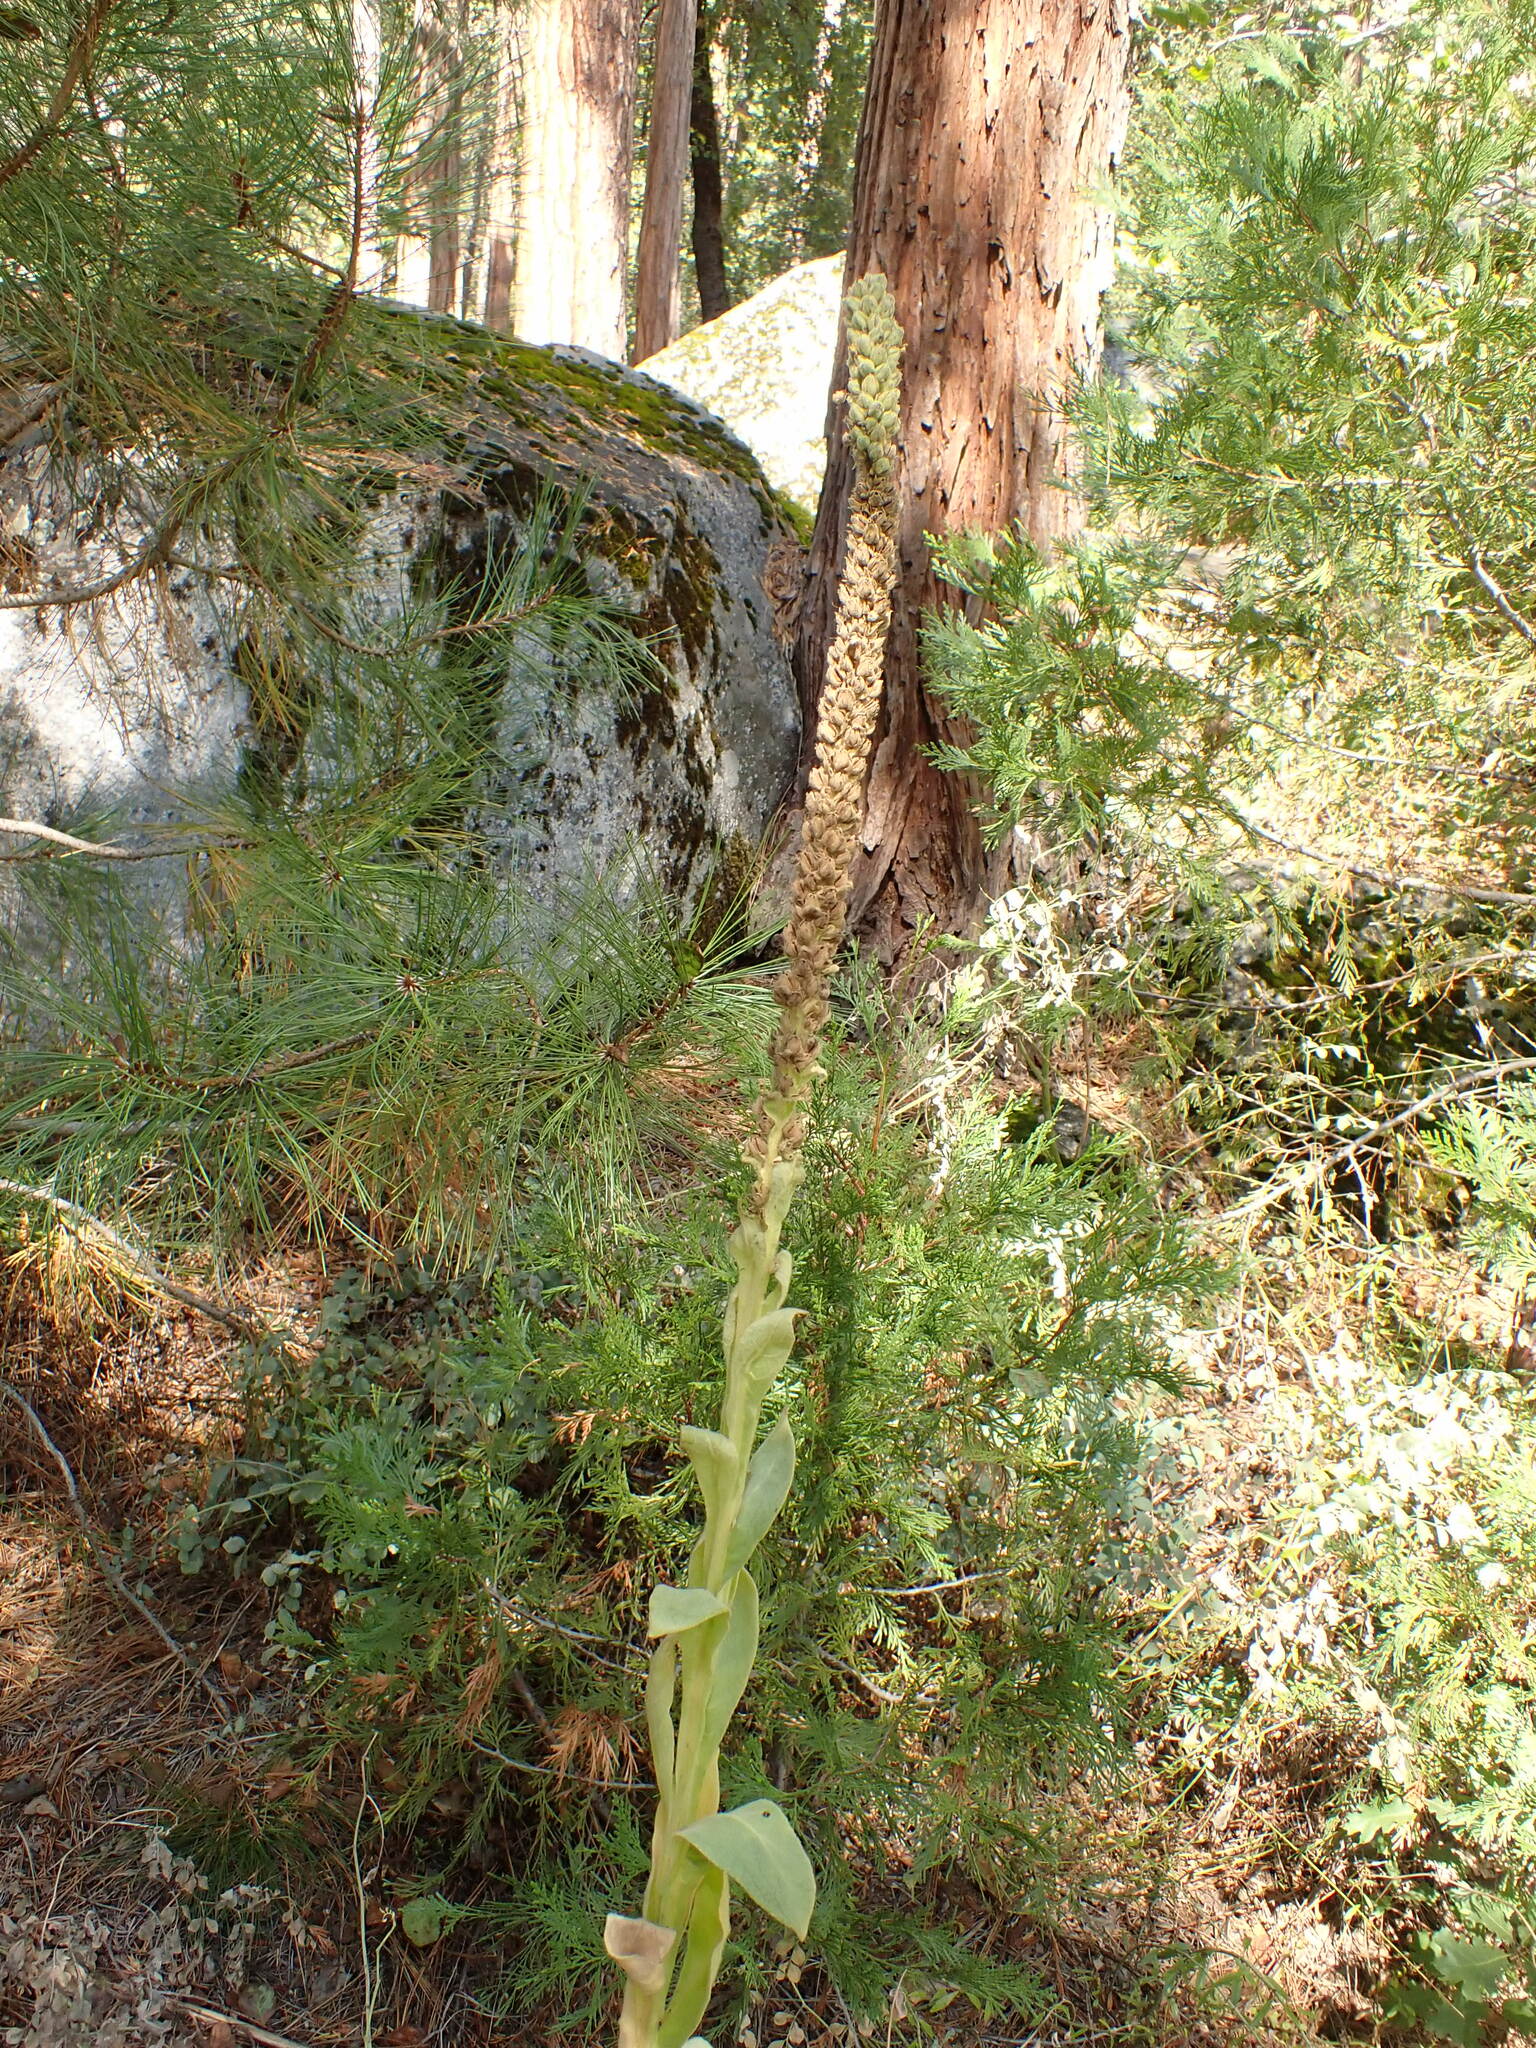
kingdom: Plantae
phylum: Tracheophyta
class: Magnoliopsida
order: Lamiales
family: Scrophulariaceae
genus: Verbascum
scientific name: Verbascum thapsus
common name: Common mullein
